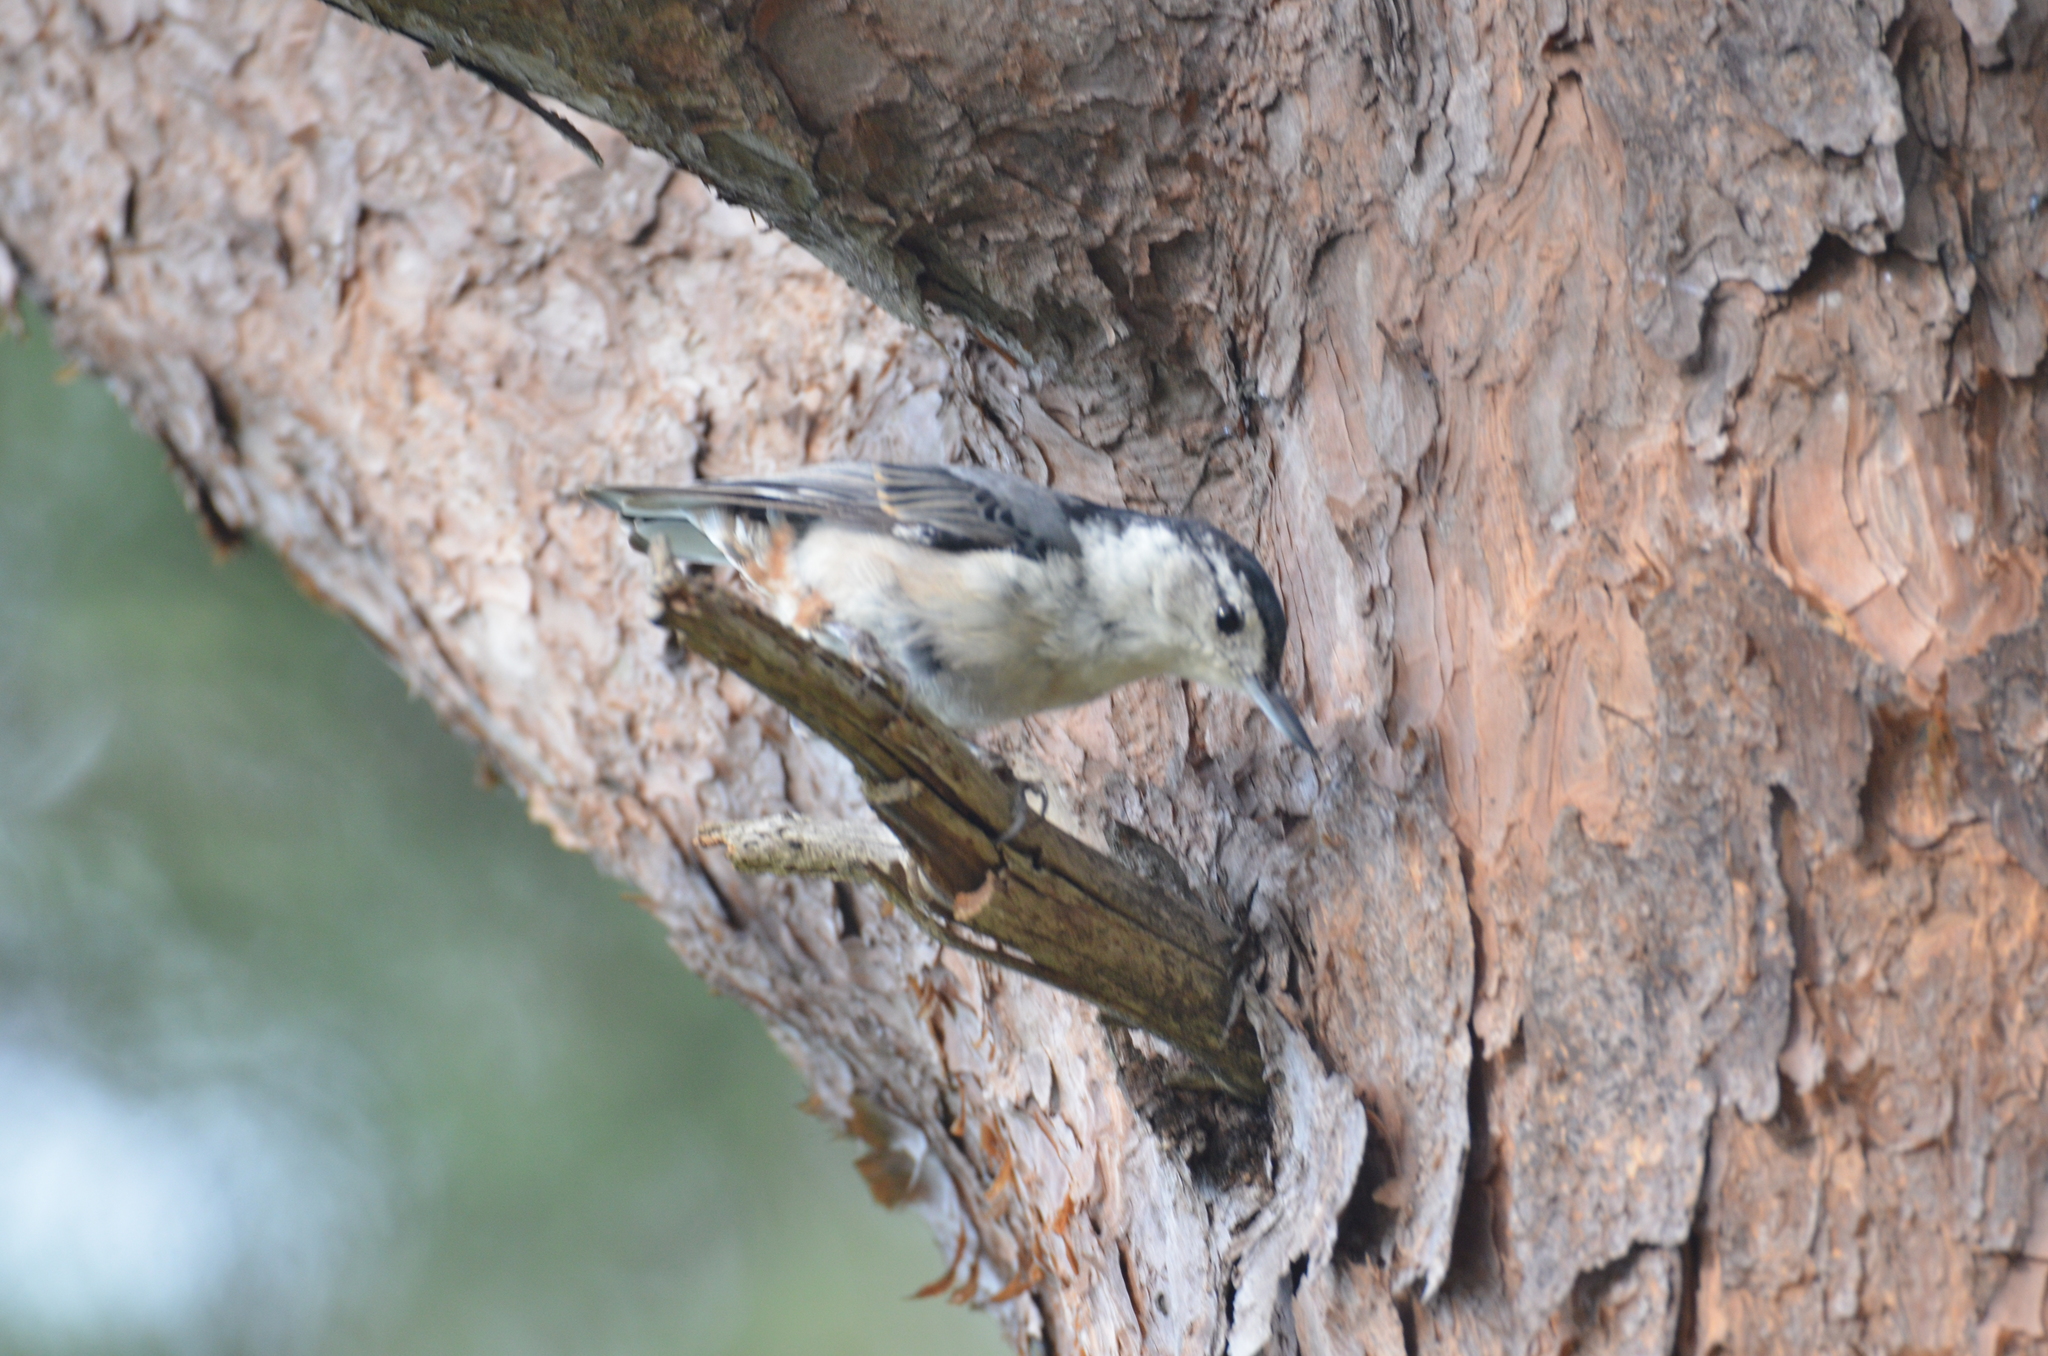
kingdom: Animalia
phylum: Chordata
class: Aves
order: Passeriformes
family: Sittidae
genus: Sitta
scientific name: Sitta carolinensis
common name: White-breasted nuthatch
